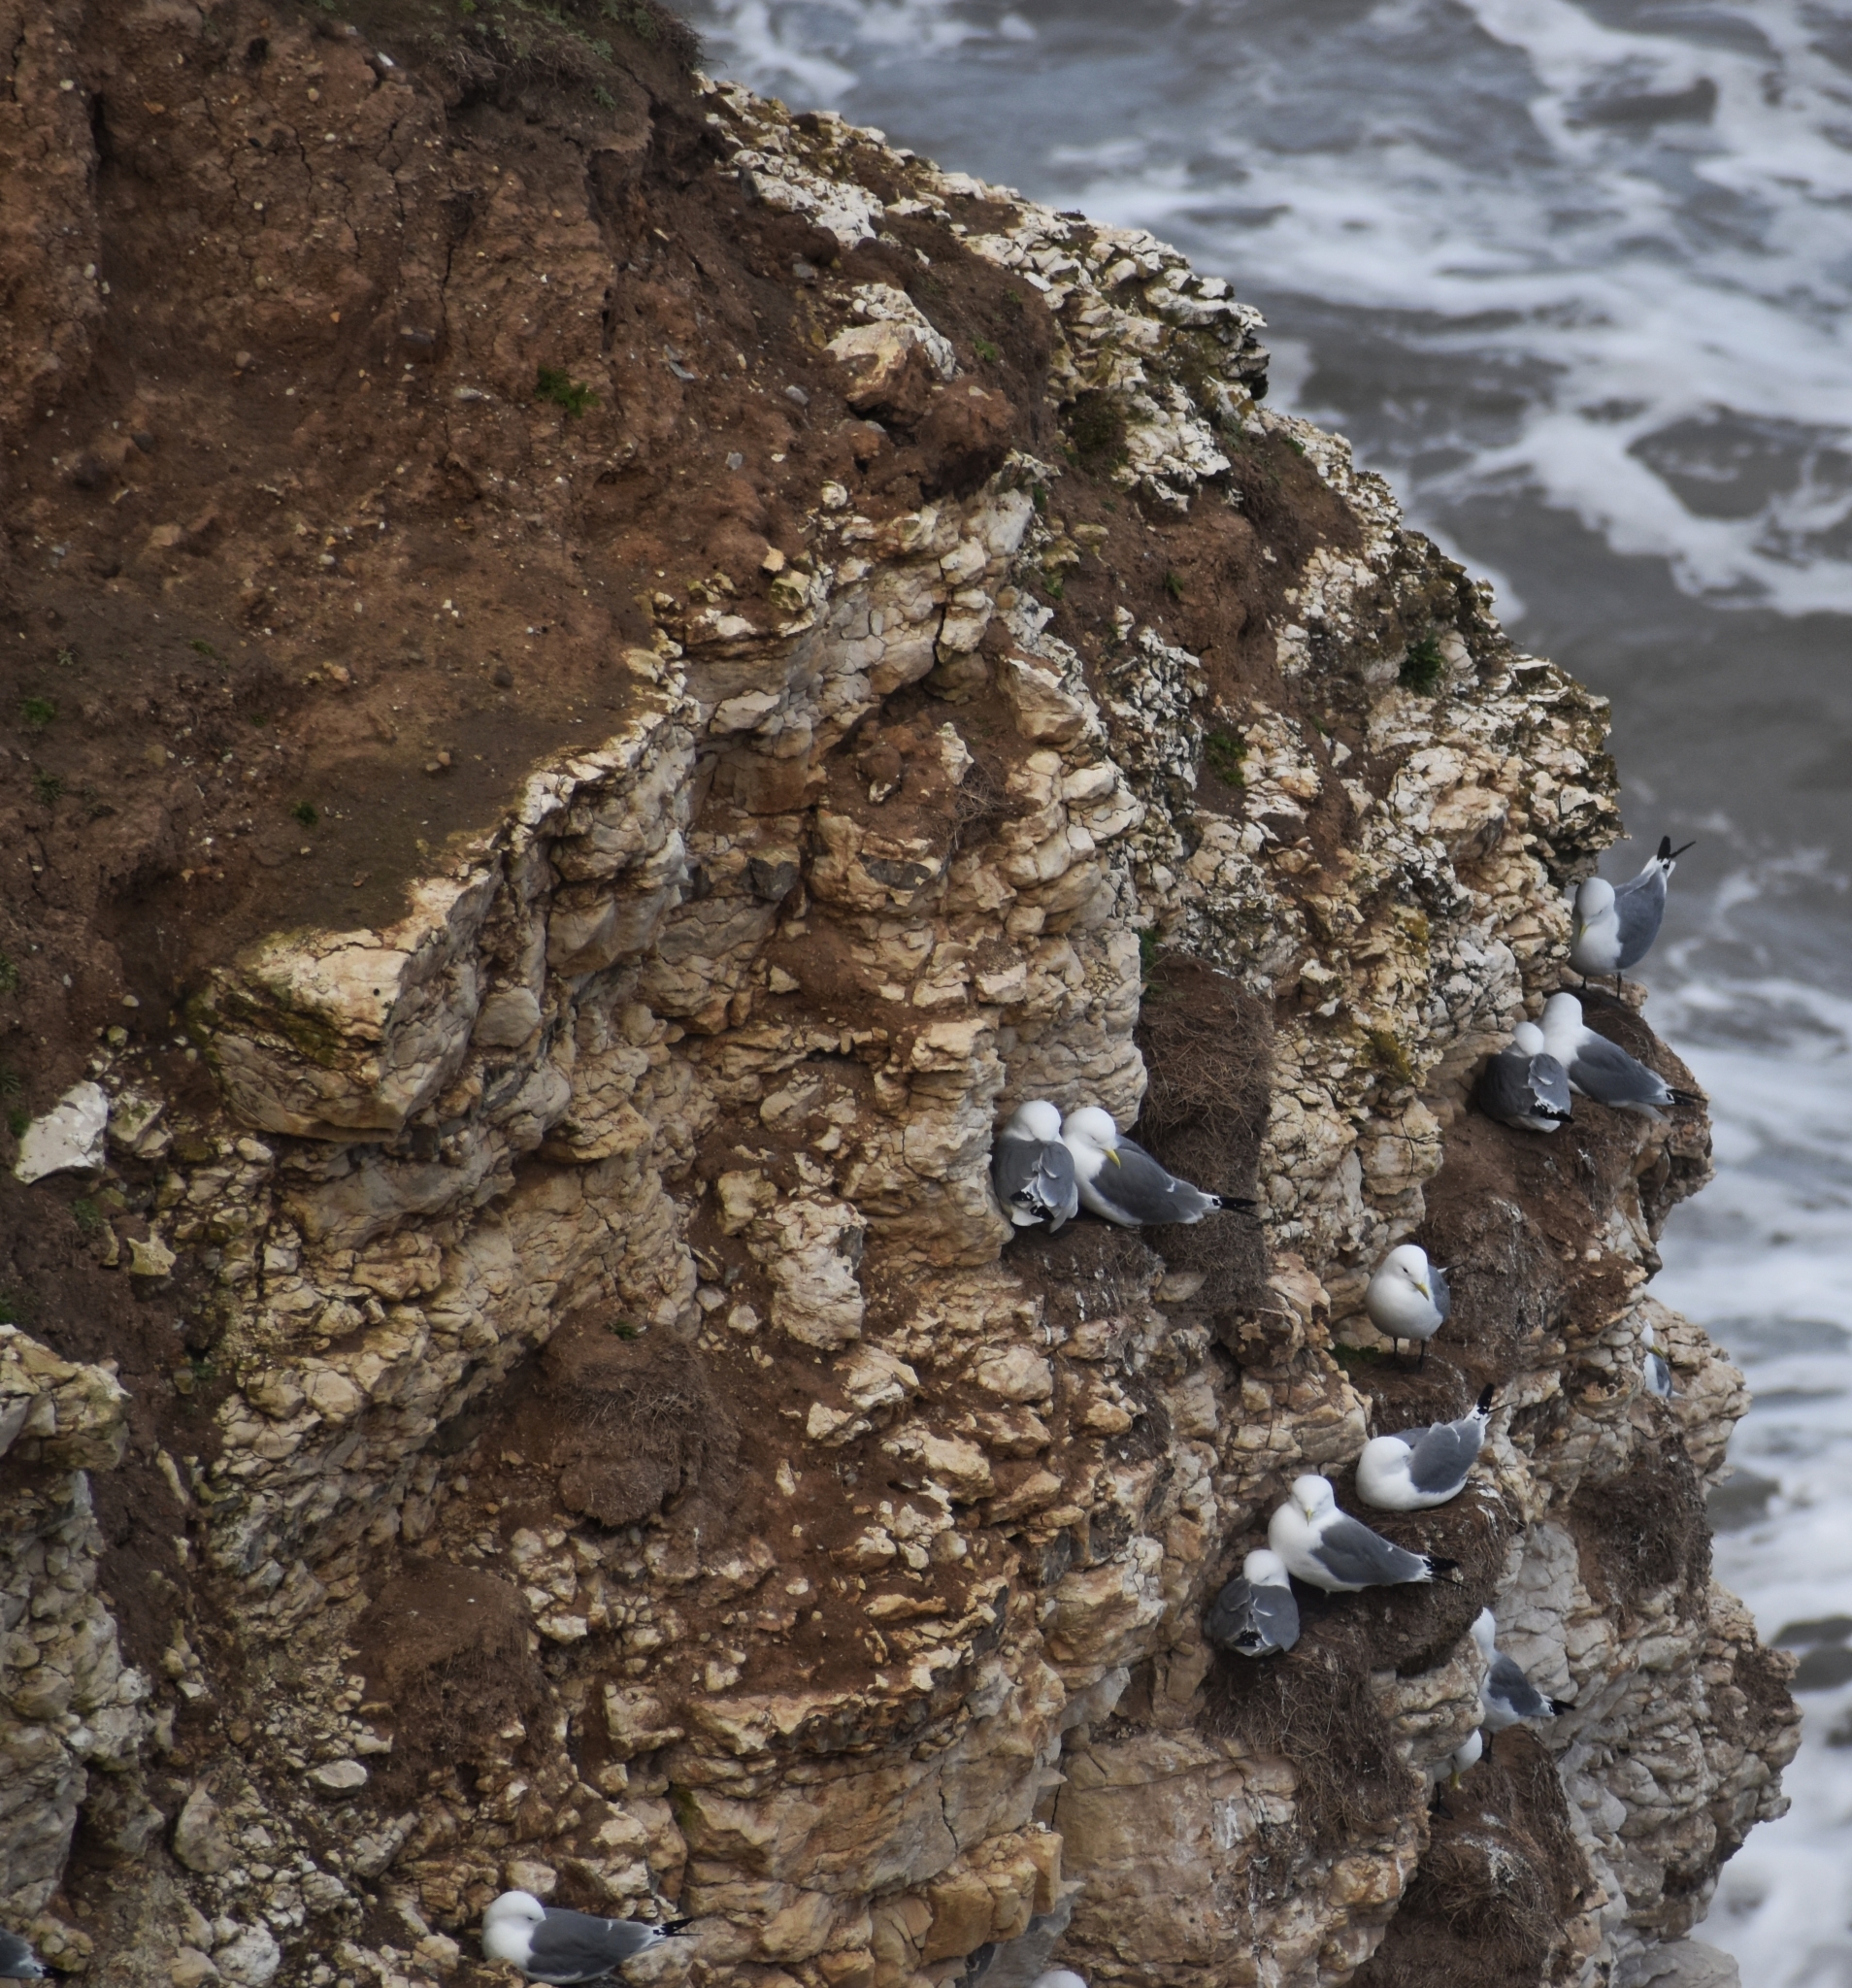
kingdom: Animalia
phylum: Chordata
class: Aves
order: Charadriiformes
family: Laridae
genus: Rissa
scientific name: Rissa tridactyla
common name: Black-legged kittiwake
